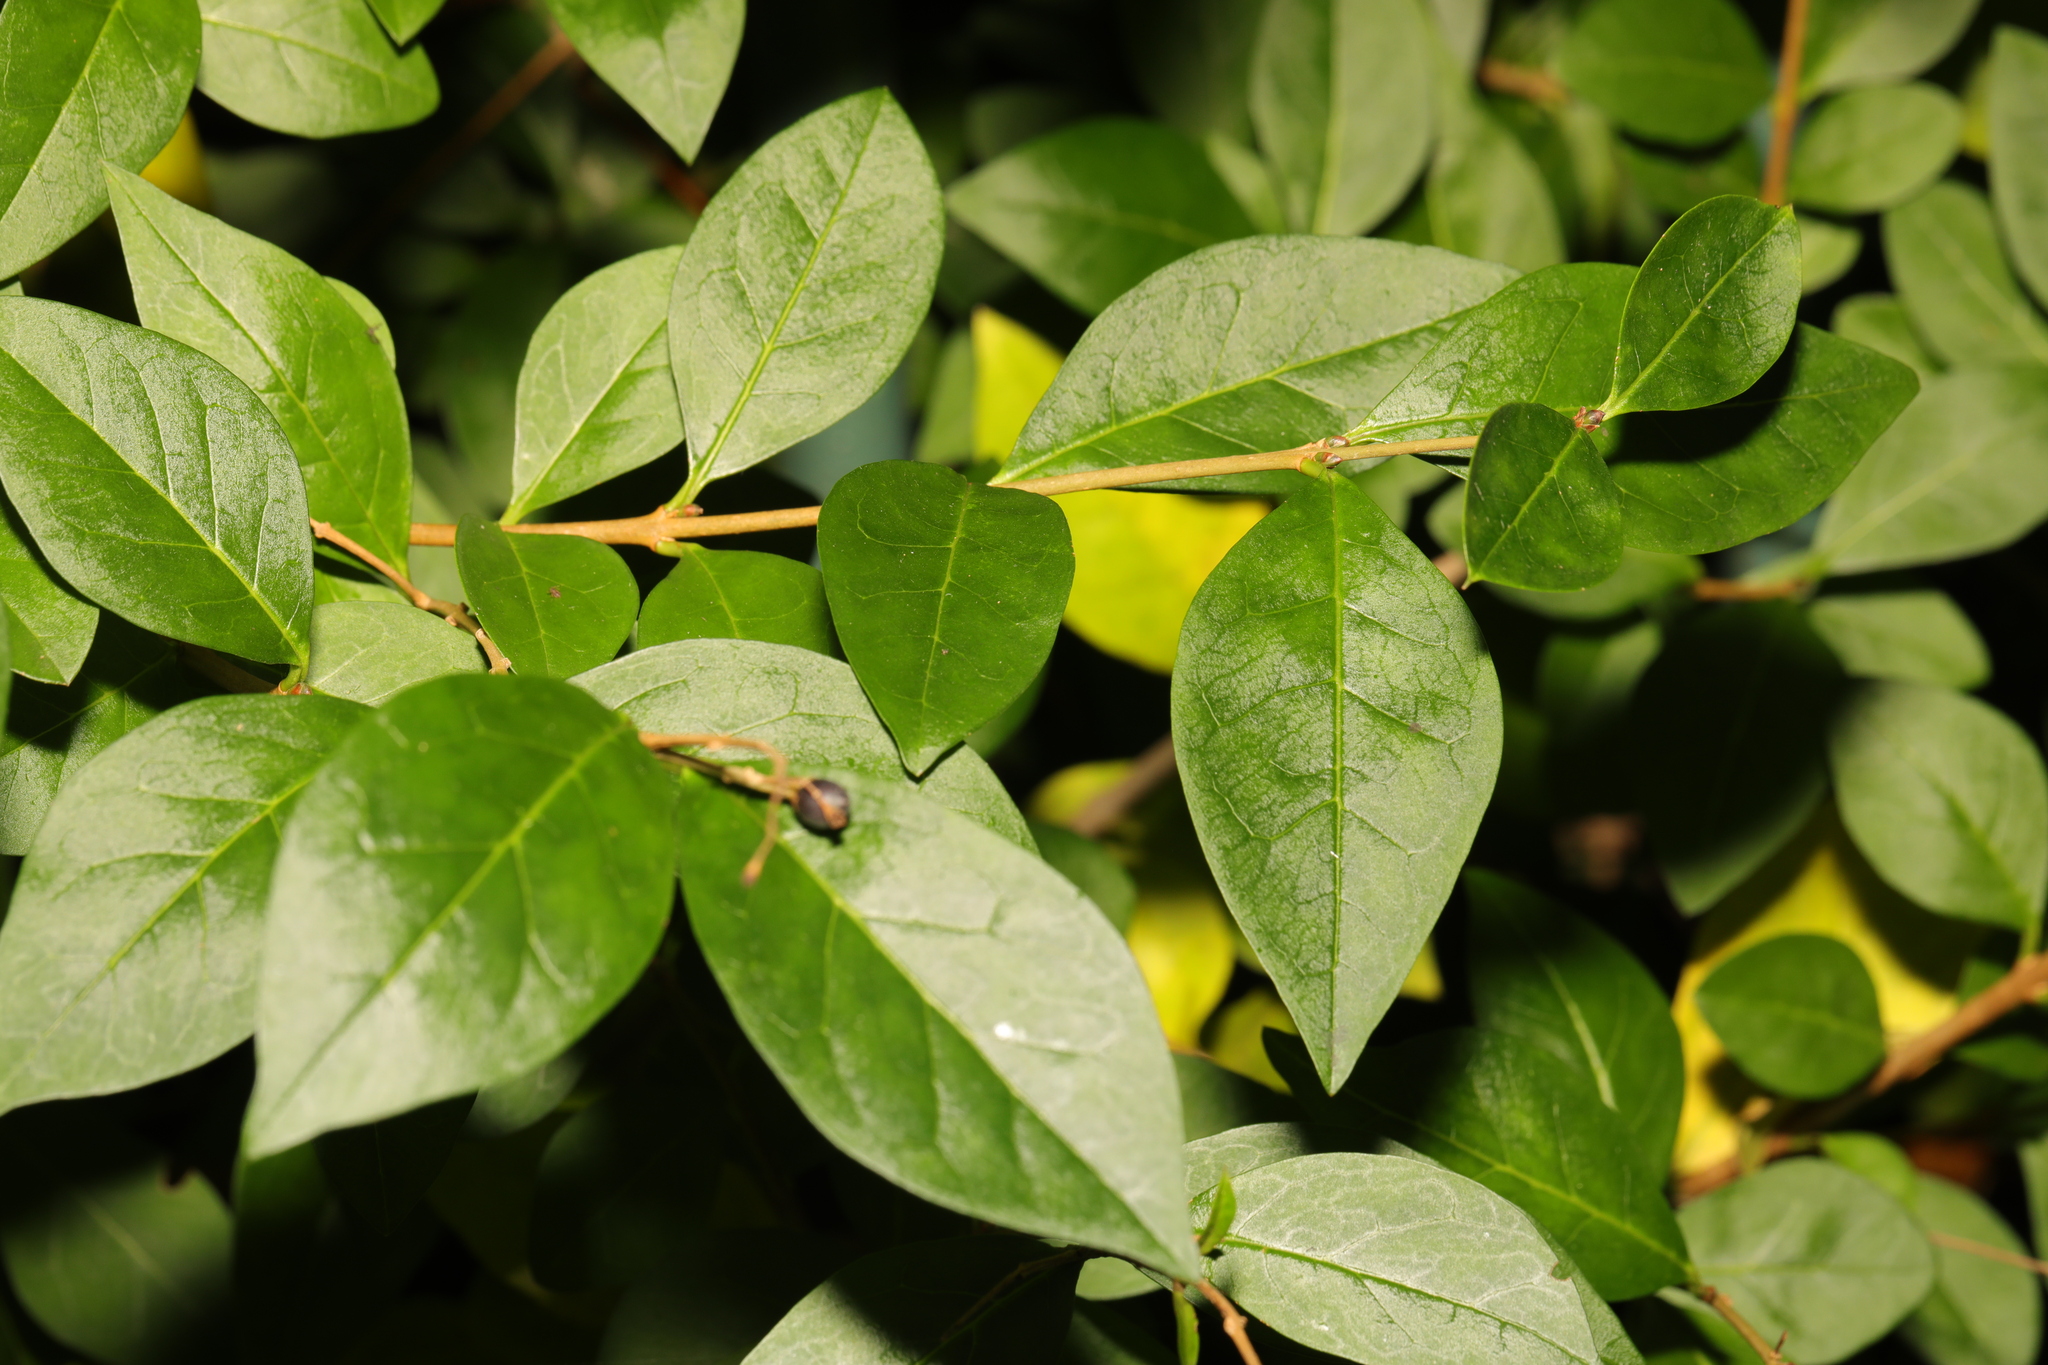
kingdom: Plantae
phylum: Tracheophyta
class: Magnoliopsida
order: Lamiales
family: Oleaceae
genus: Ligustrum
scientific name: Ligustrum ovalifolium
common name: California privet
